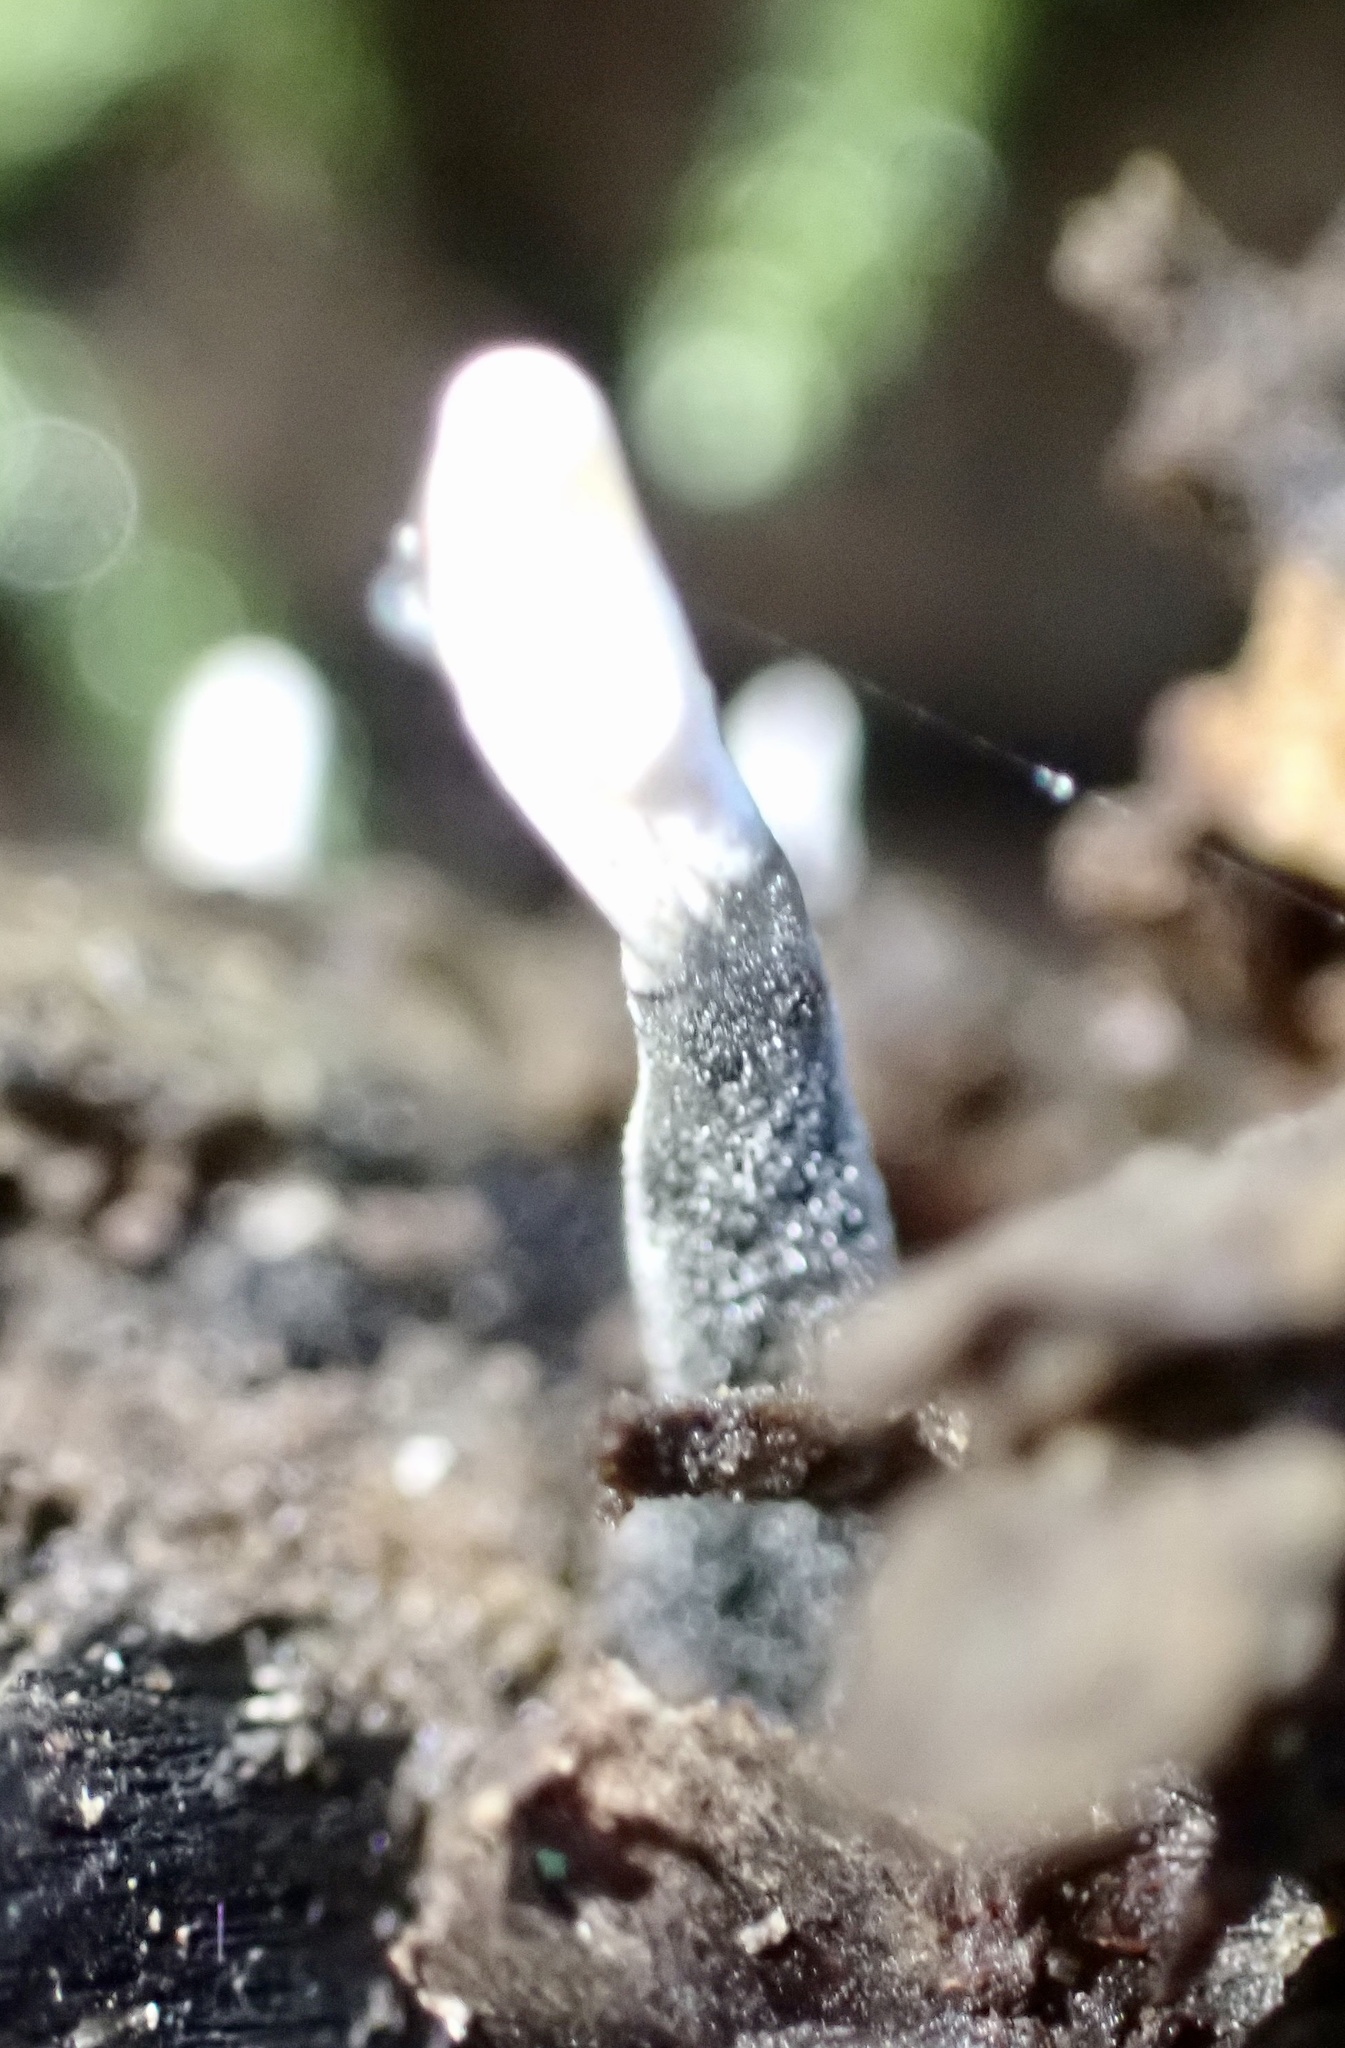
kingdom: Fungi
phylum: Ascomycota
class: Sordariomycetes
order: Xylariales
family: Xylariaceae
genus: Xylaria
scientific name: Xylaria hypoxylon
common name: Candle-snuff fungus
